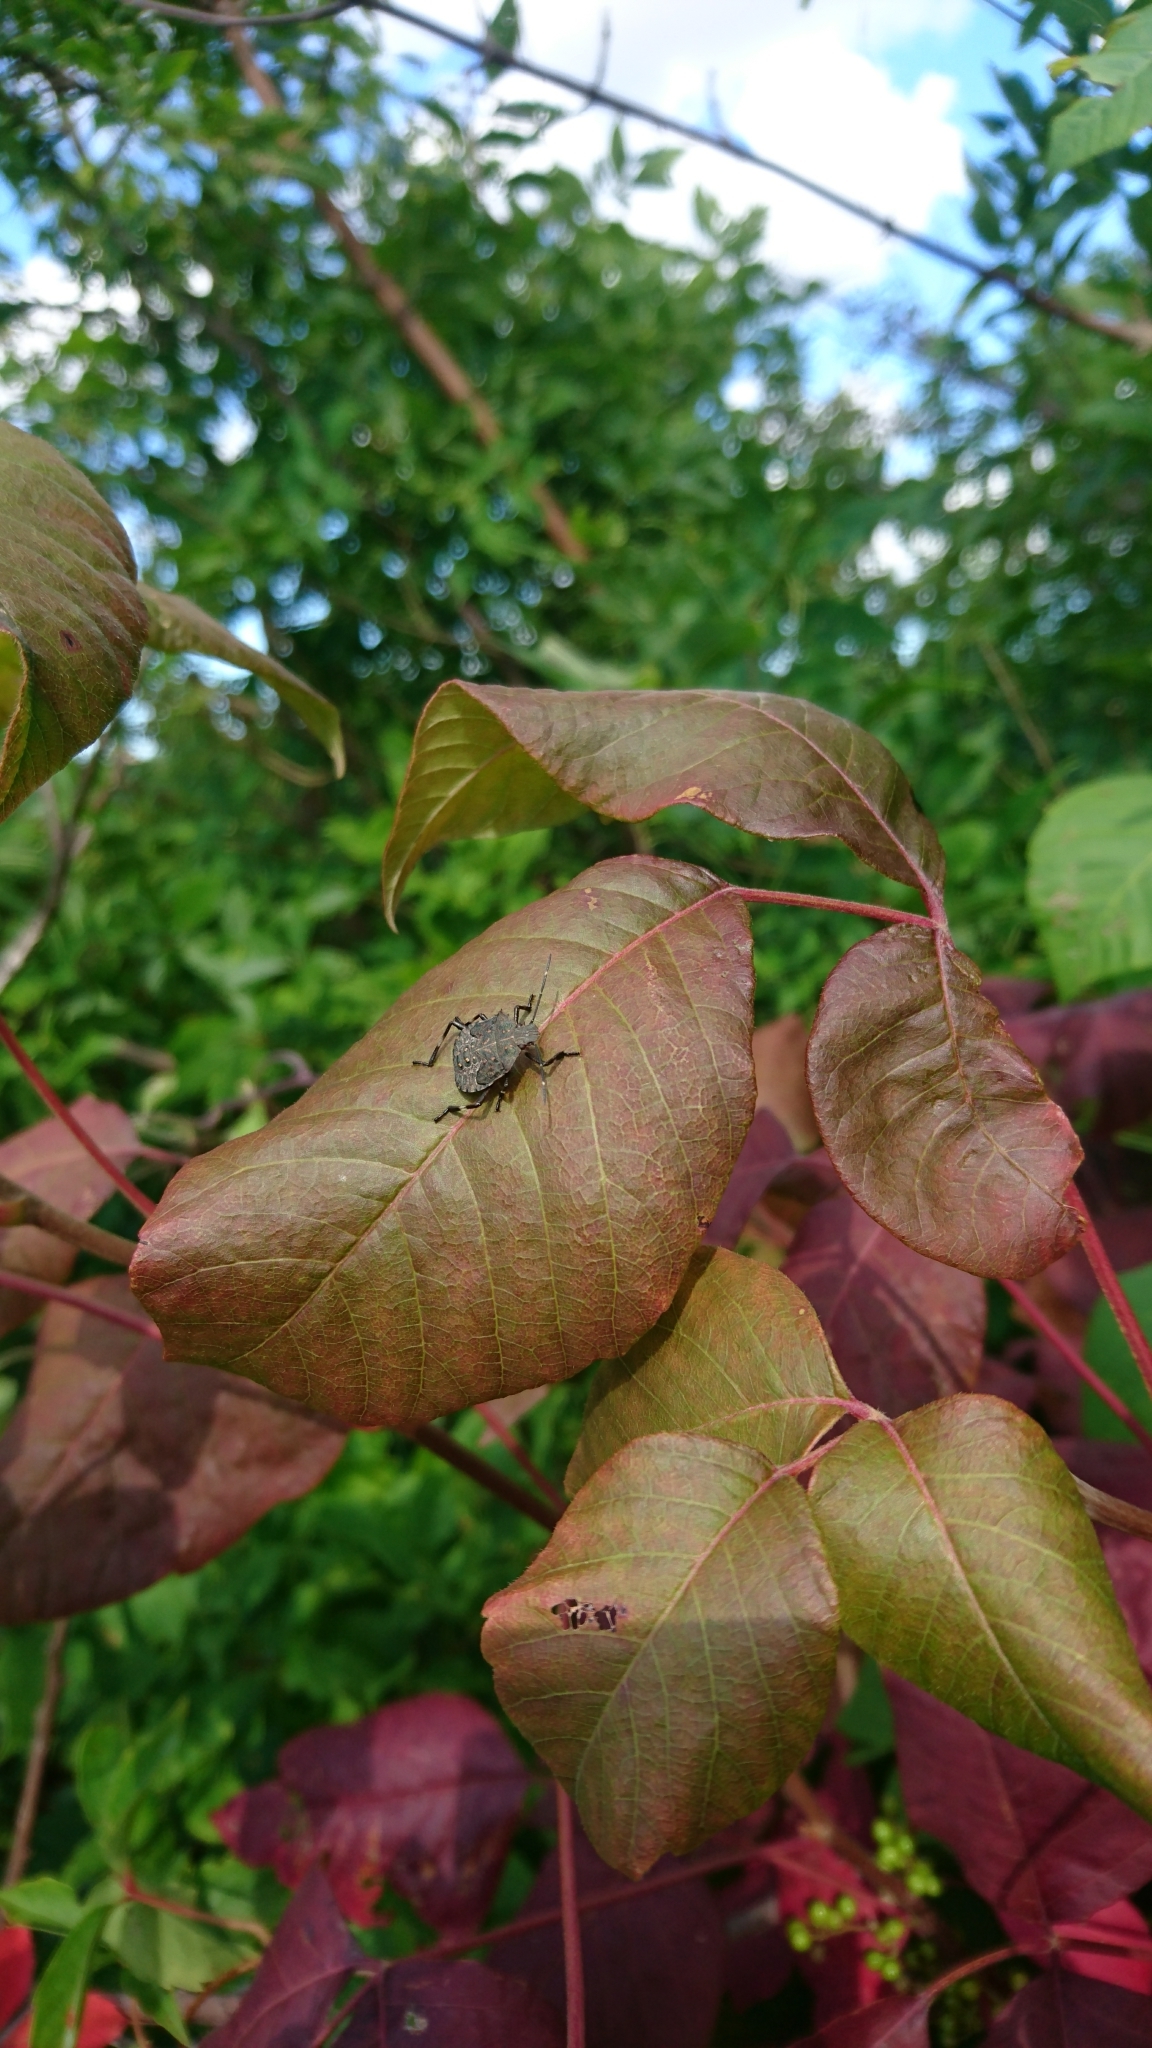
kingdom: Animalia
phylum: Arthropoda
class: Insecta
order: Hemiptera
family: Pentatomidae
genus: Halyomorpha
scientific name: Halyomorpha halys
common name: Brown marmorated stink bug
